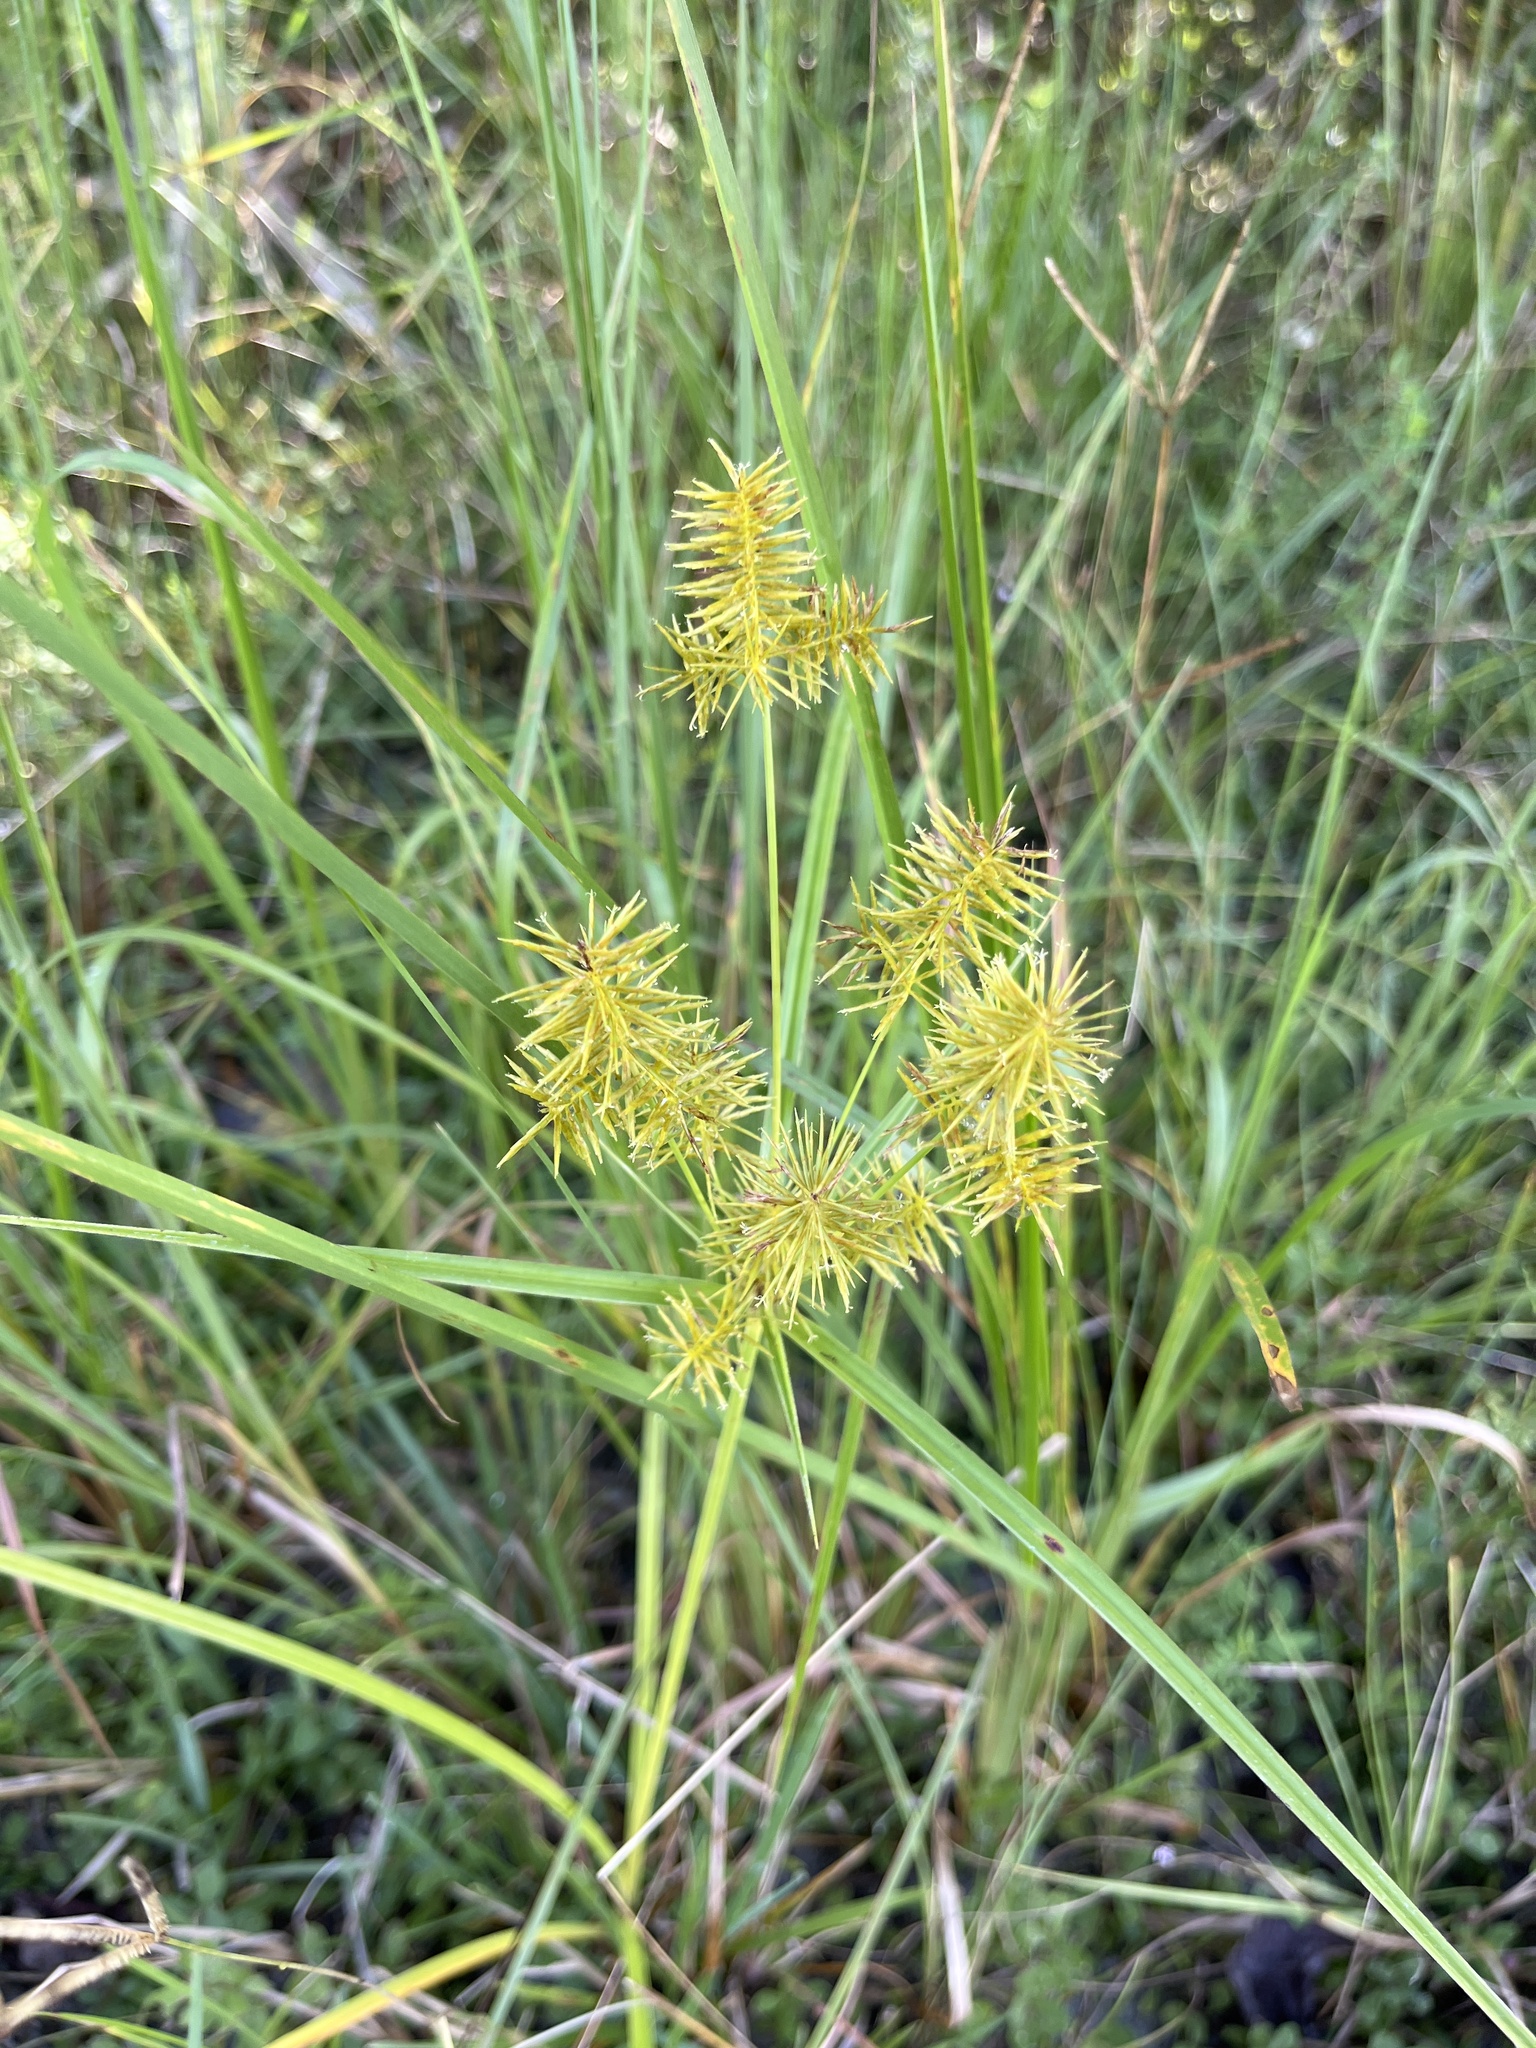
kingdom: Plantae
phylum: Tracheophyta
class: Liliopsida
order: Poales
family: Cyperaceae
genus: Cyperus
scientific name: Cyperus strigosus
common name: False nutsedge
